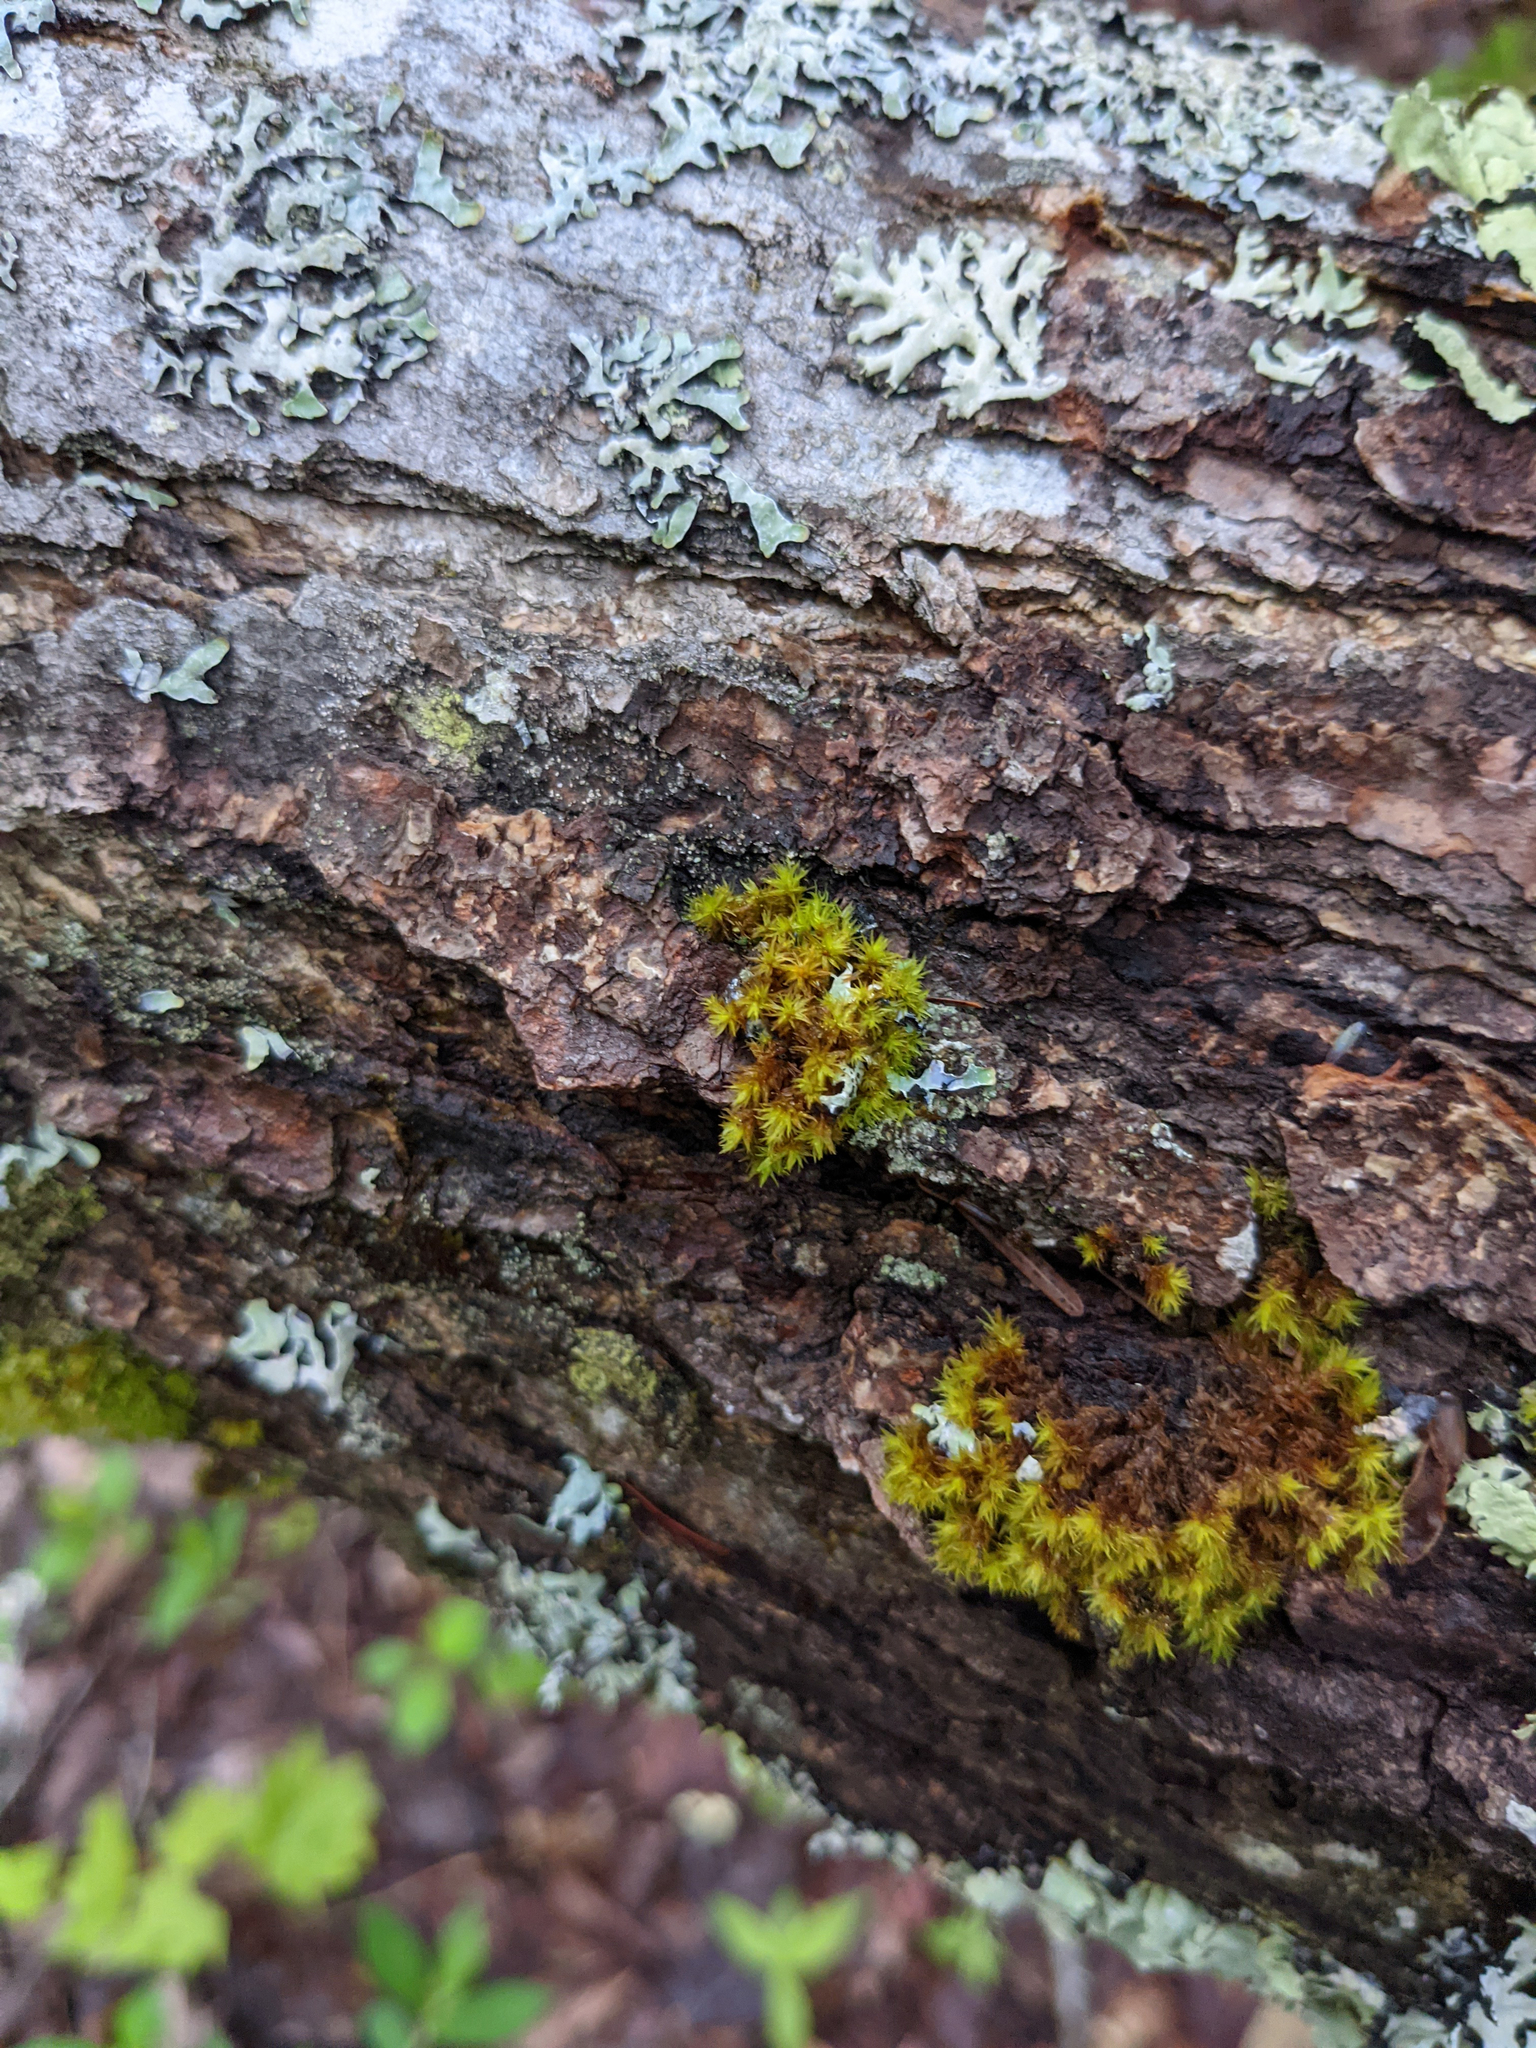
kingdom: Plantae
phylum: Bryophyta
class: Bryopsida
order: Orthotrichales
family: Orthotrichaceae
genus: Ulota
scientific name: Ulota crispa
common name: Crisped pincushion moss
